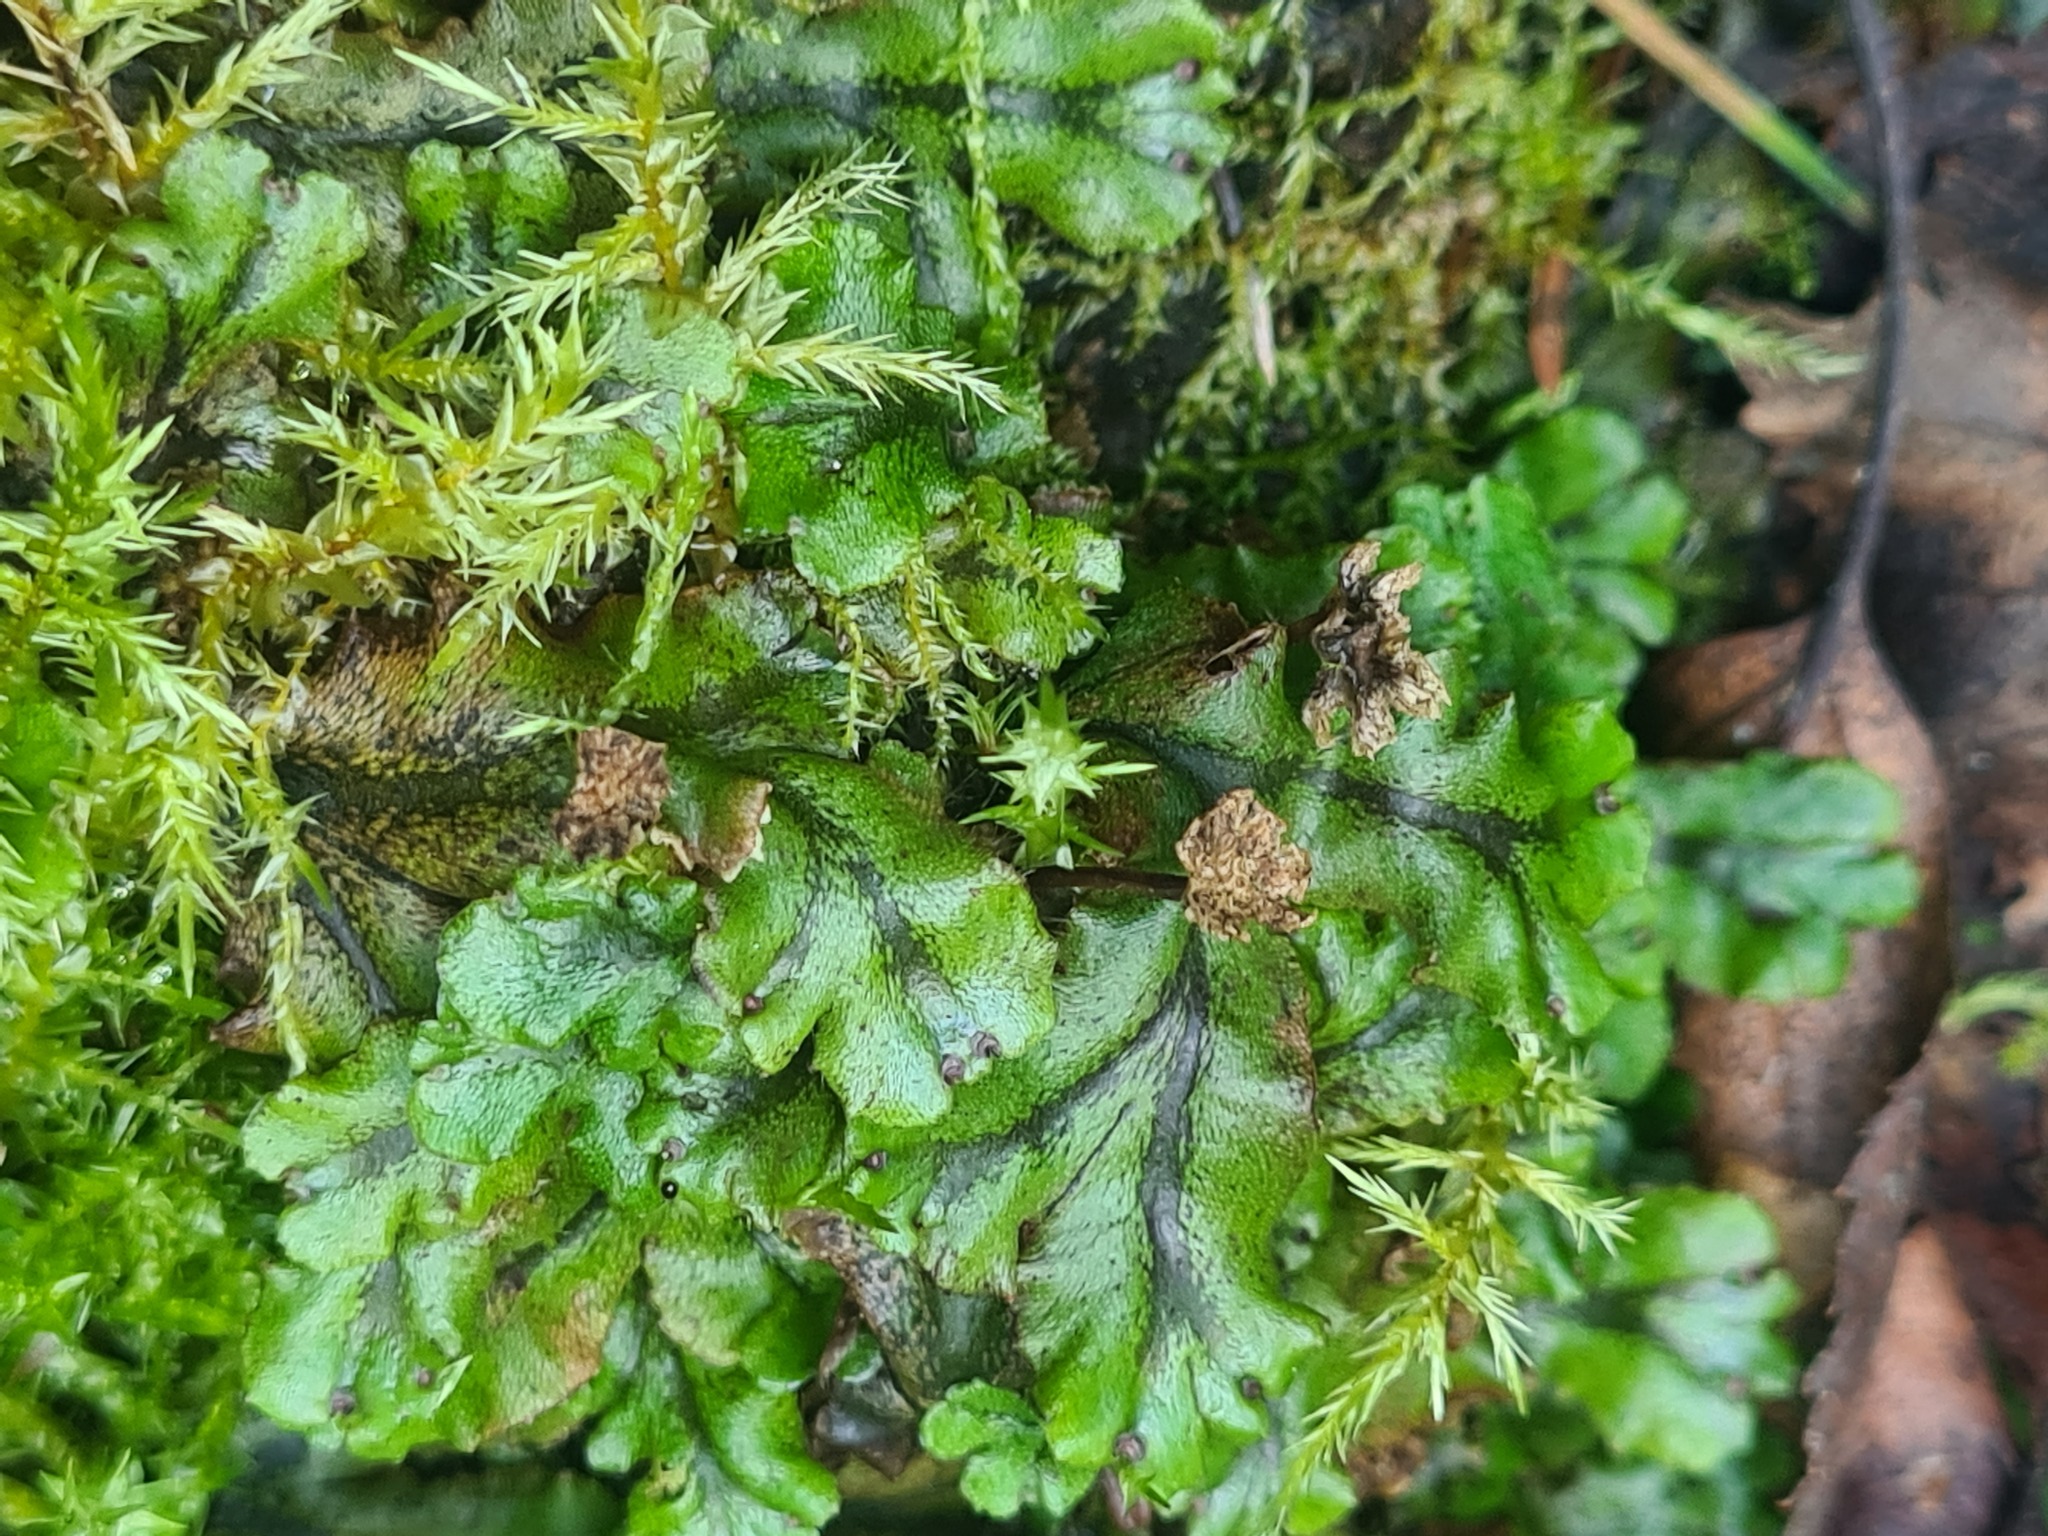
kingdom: Plantae
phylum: Marchantiophyta
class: Marchantiopsida
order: Marchantiales
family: Marchantiaceae
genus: Marchantia
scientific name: Marchantia polymorpha
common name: Common liverwort
